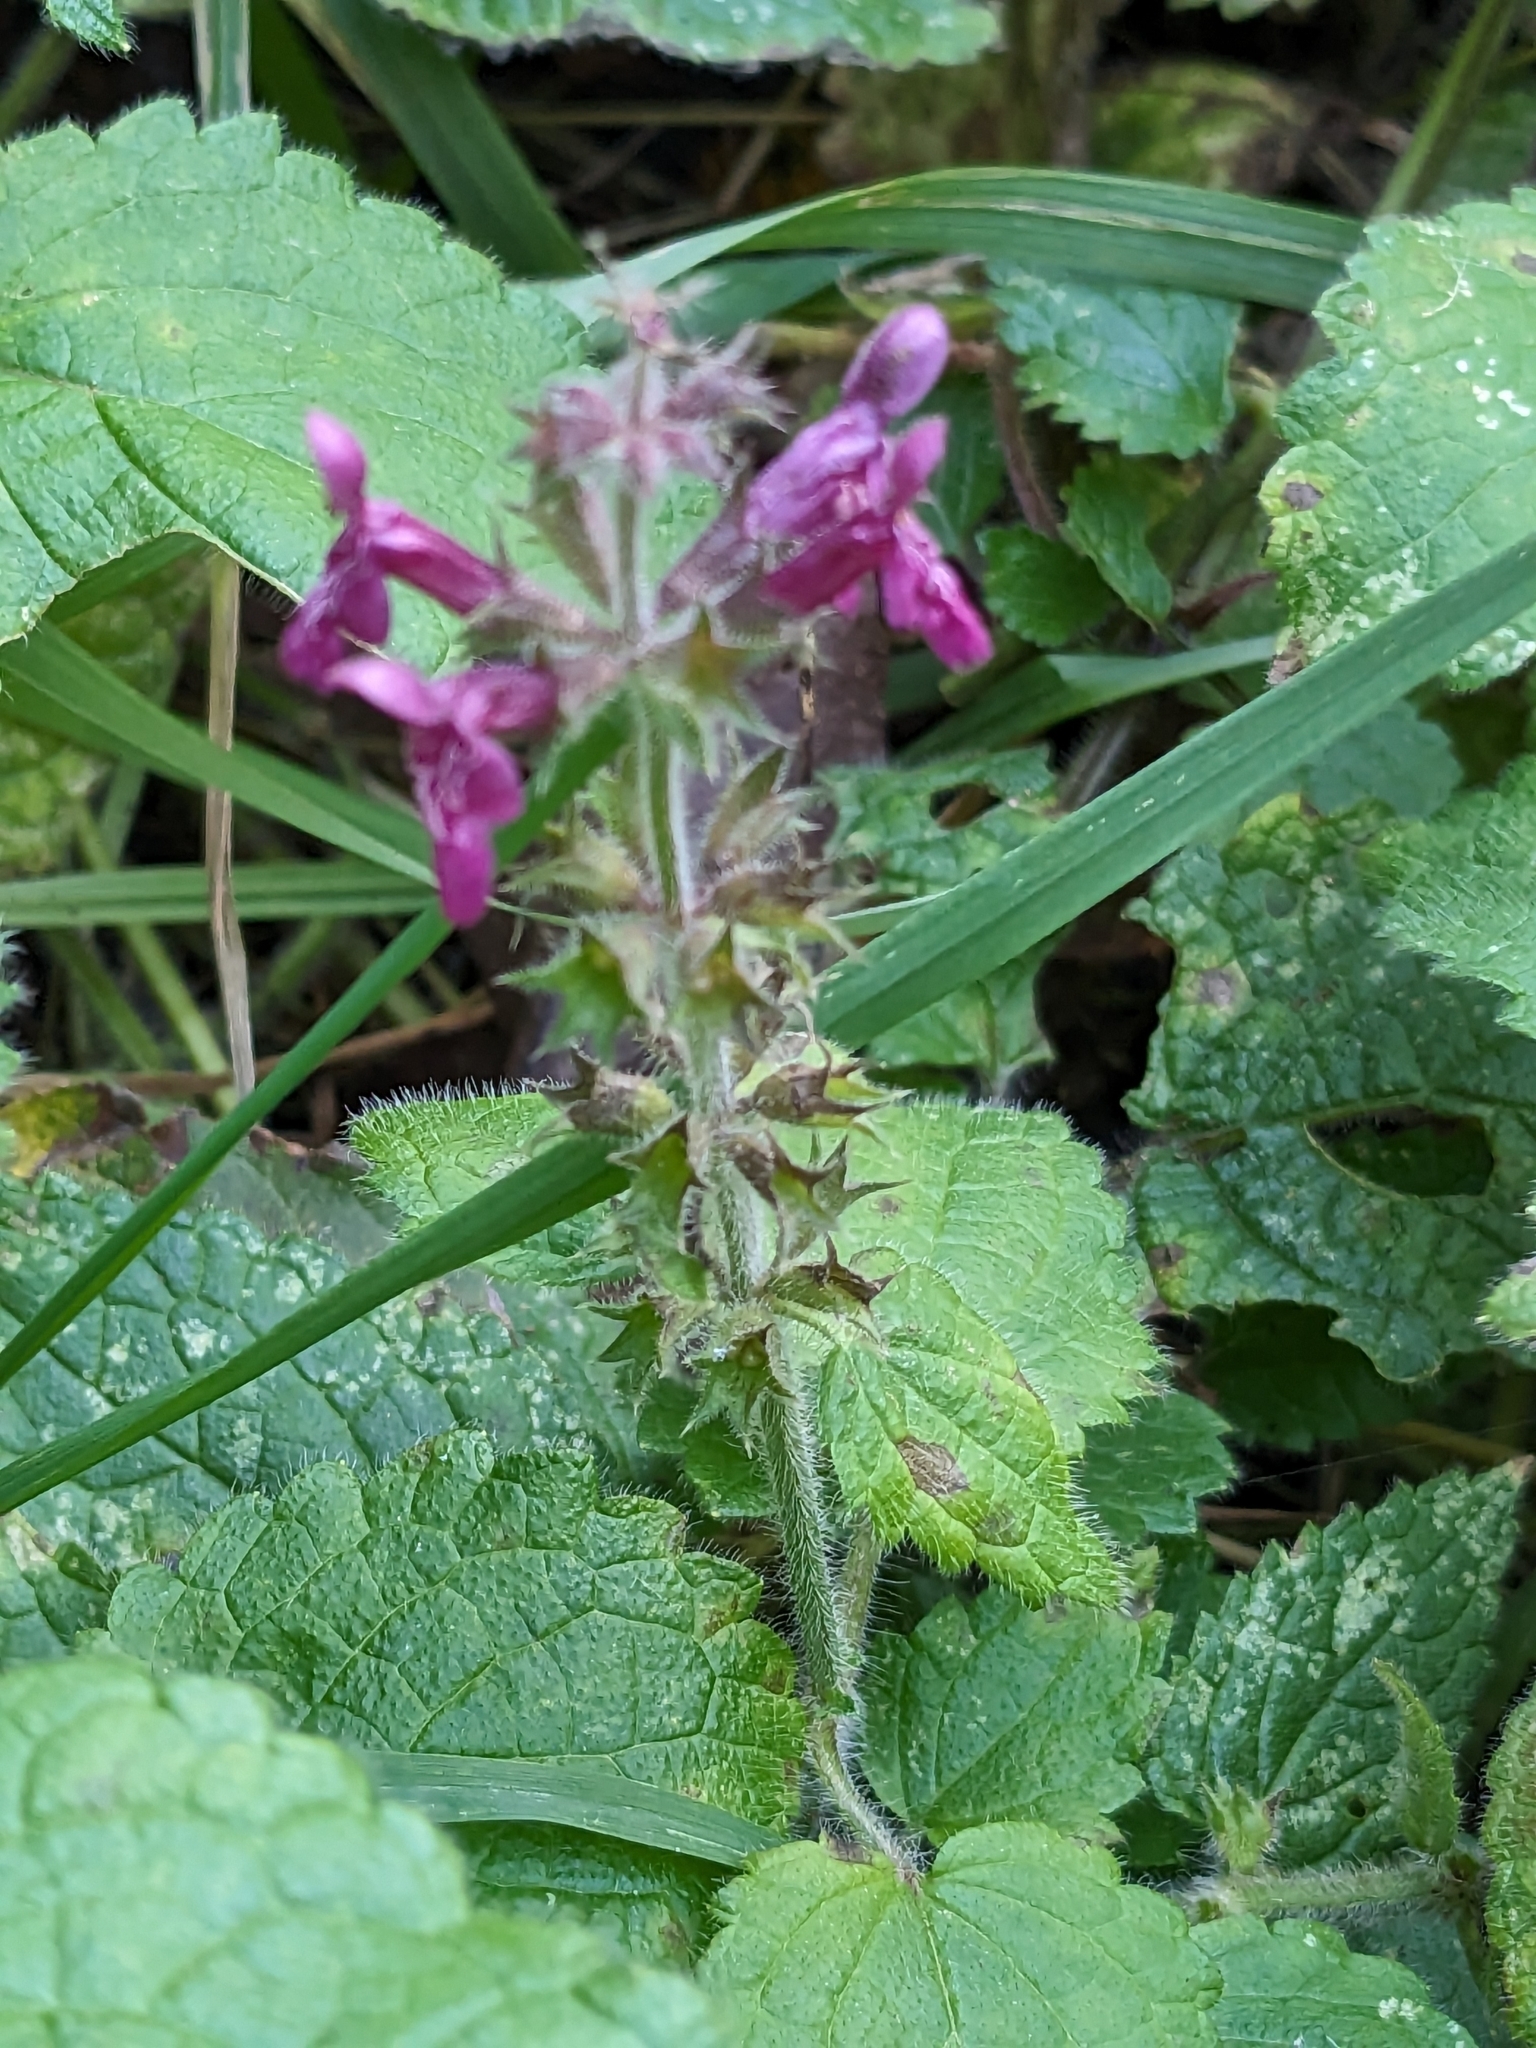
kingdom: Plantae
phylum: Tracheophyta
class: Magnoliopsida
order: Lamiales
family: Lamiaceae
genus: Stachys
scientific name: Stachys sylvatica
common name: Hedge woundwort
